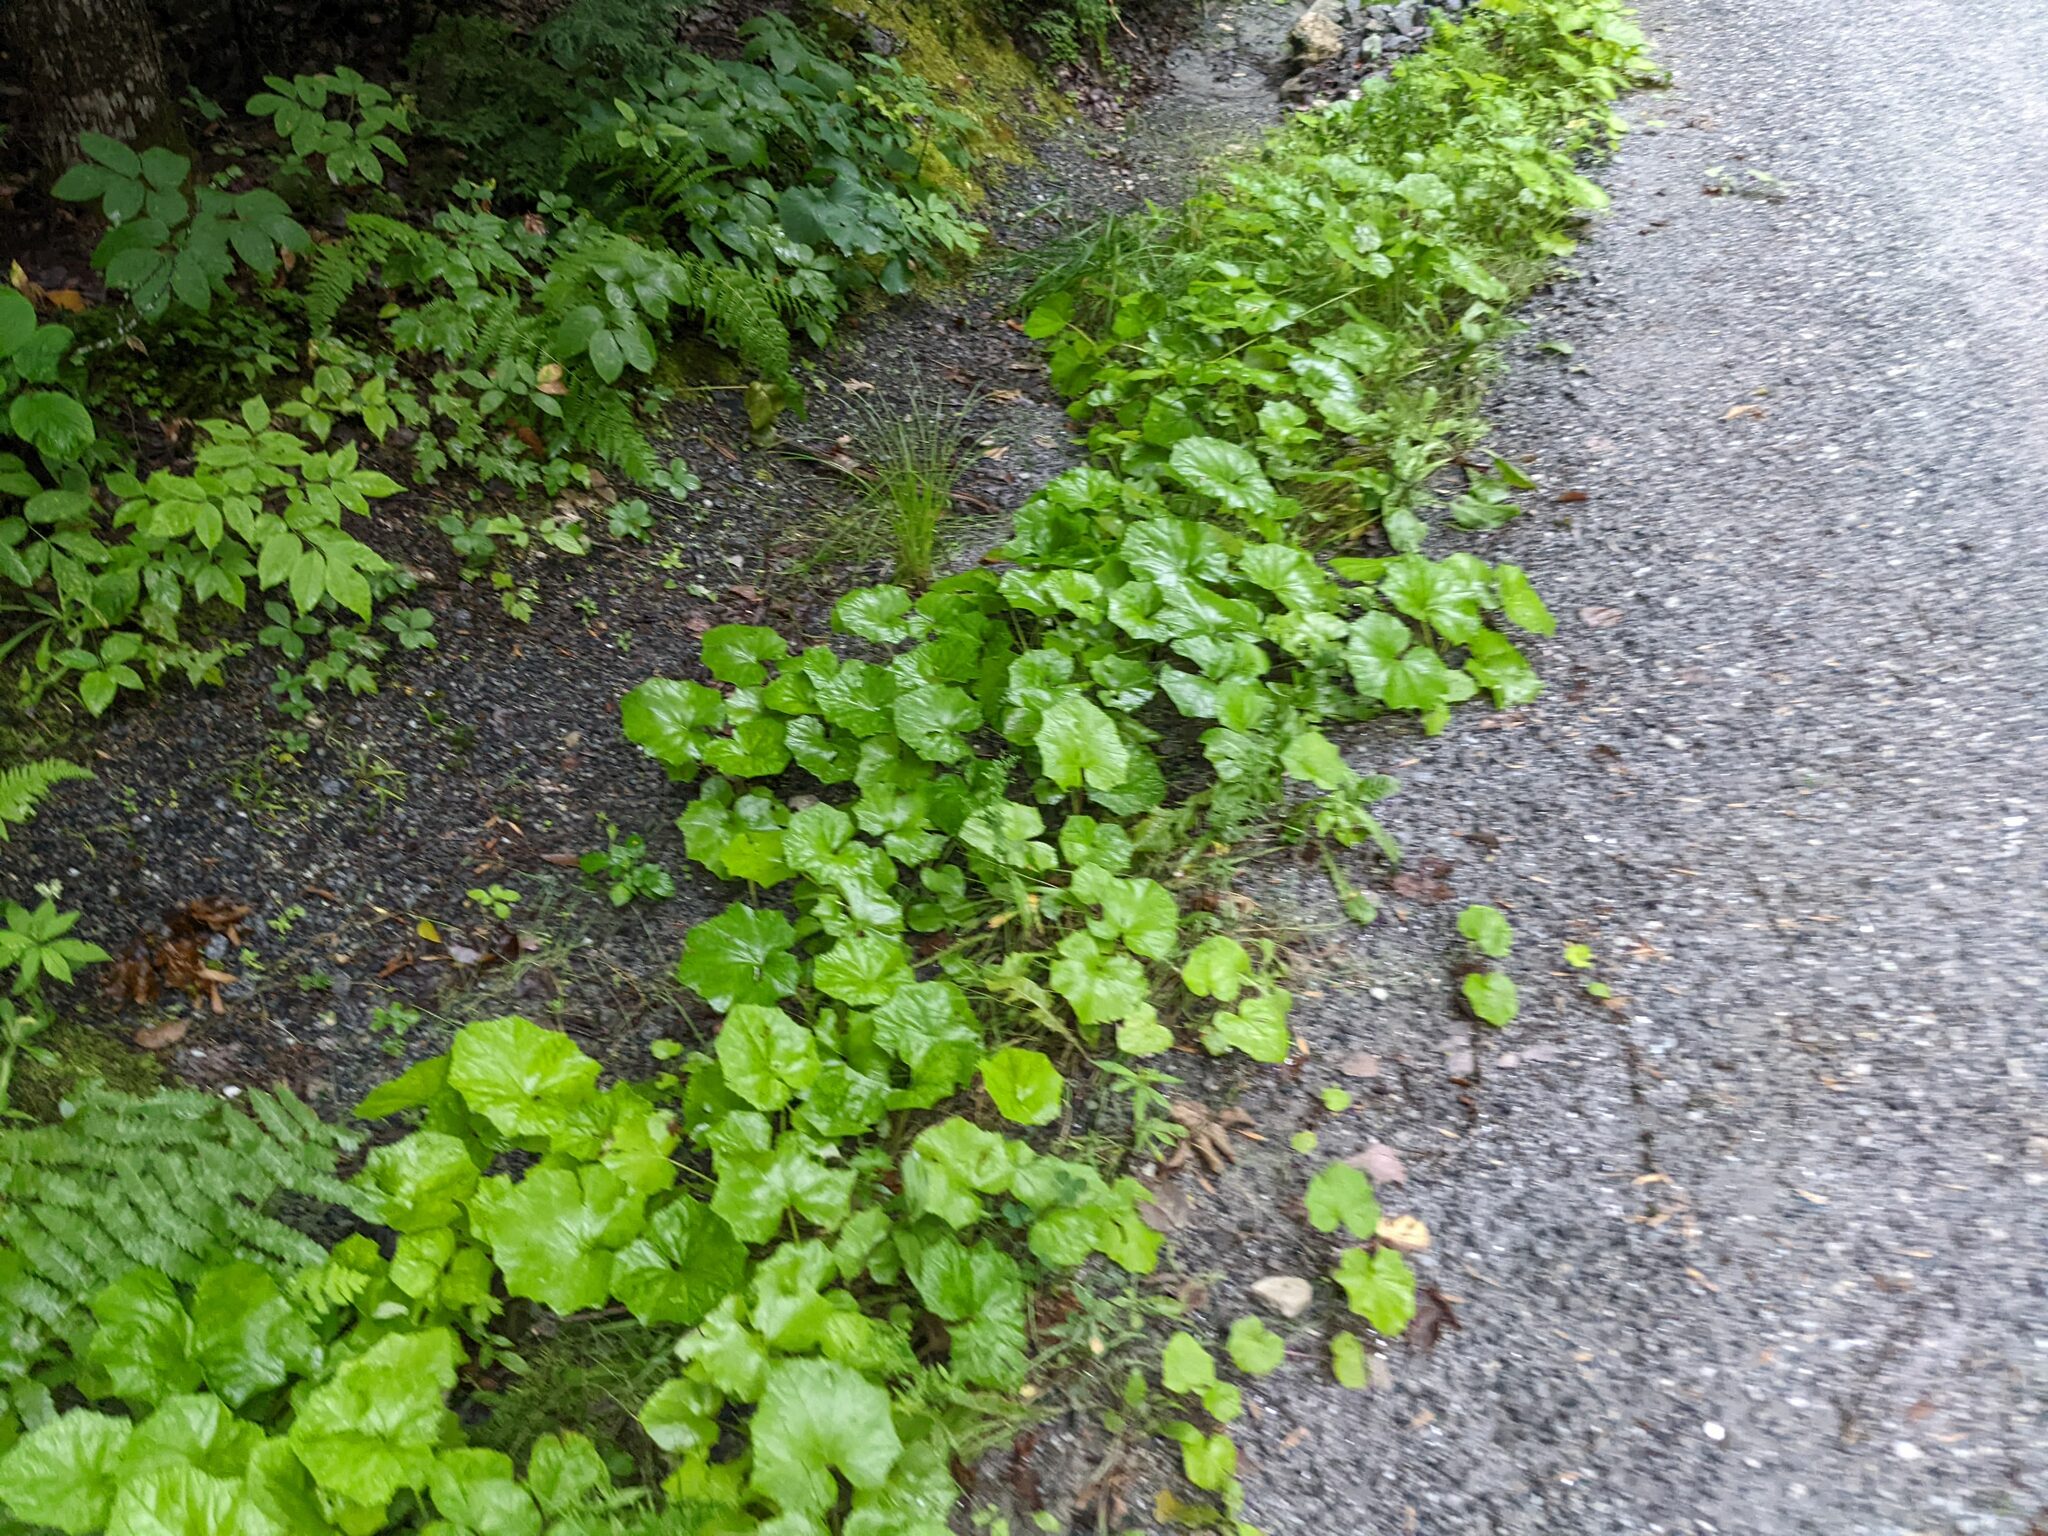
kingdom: Plantae
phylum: Tracheophyta
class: Magnoliopsida
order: Asterales
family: Asteraceae
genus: Tussilago
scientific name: Tussilago farfara
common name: Coltsfoot
